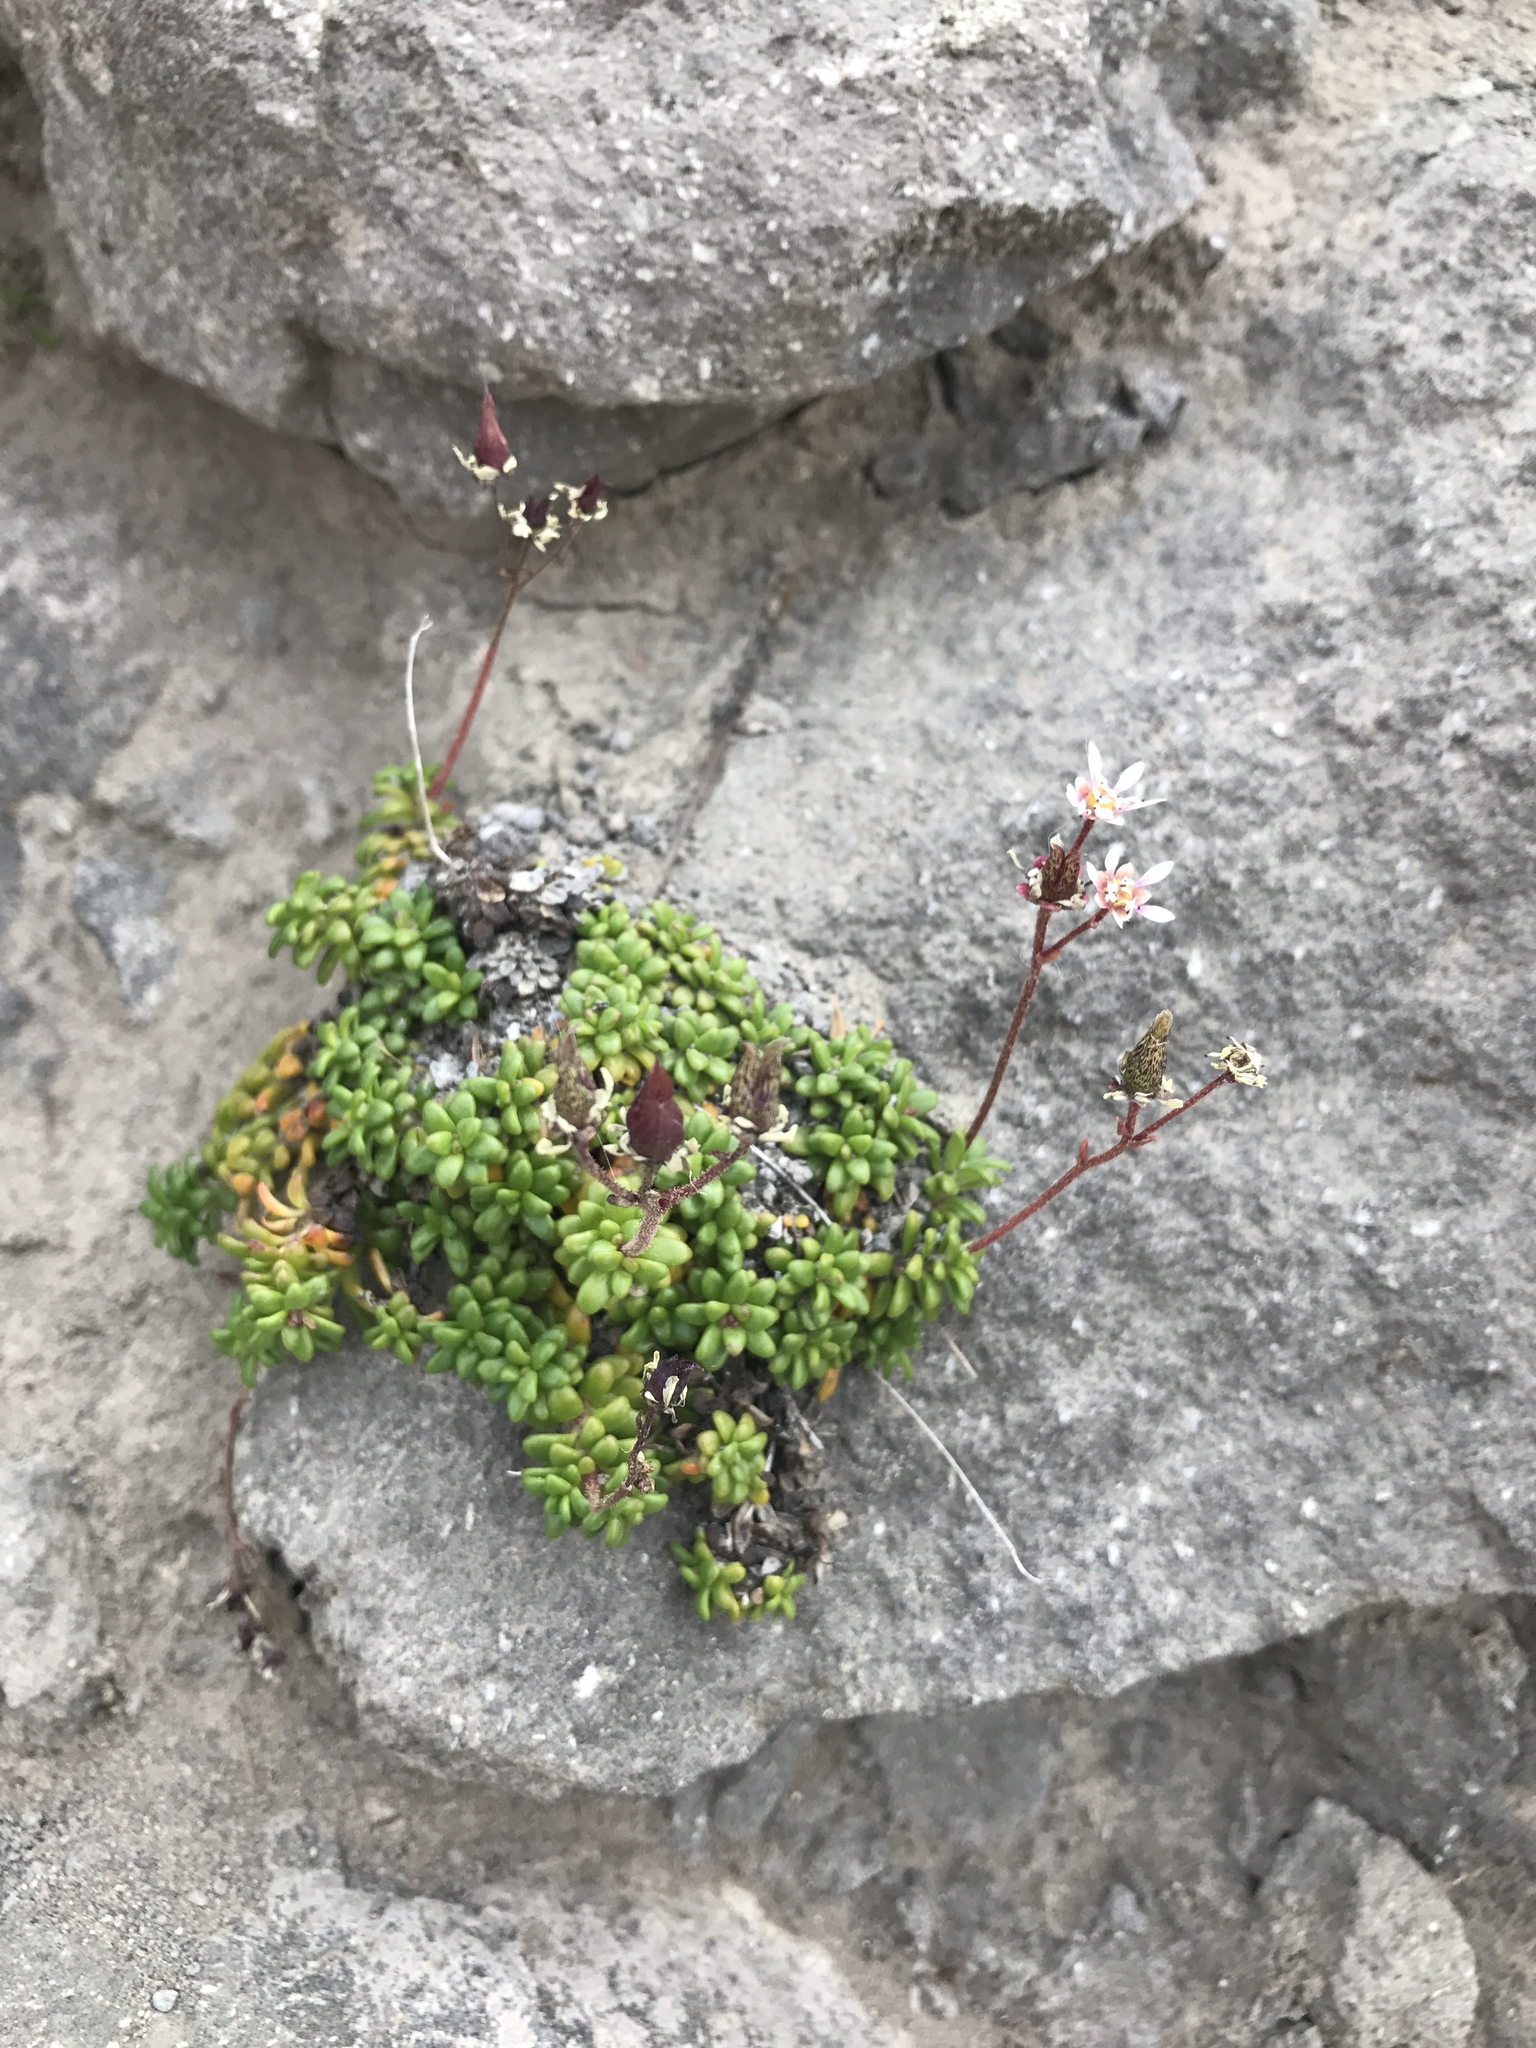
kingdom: Plantae
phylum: Tracheophyta
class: Magnoliopsida
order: Saxifragales
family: Saxifragaceae
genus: Micranthes
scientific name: Micranthes tolmiei
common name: Tolmie's saxifrage
